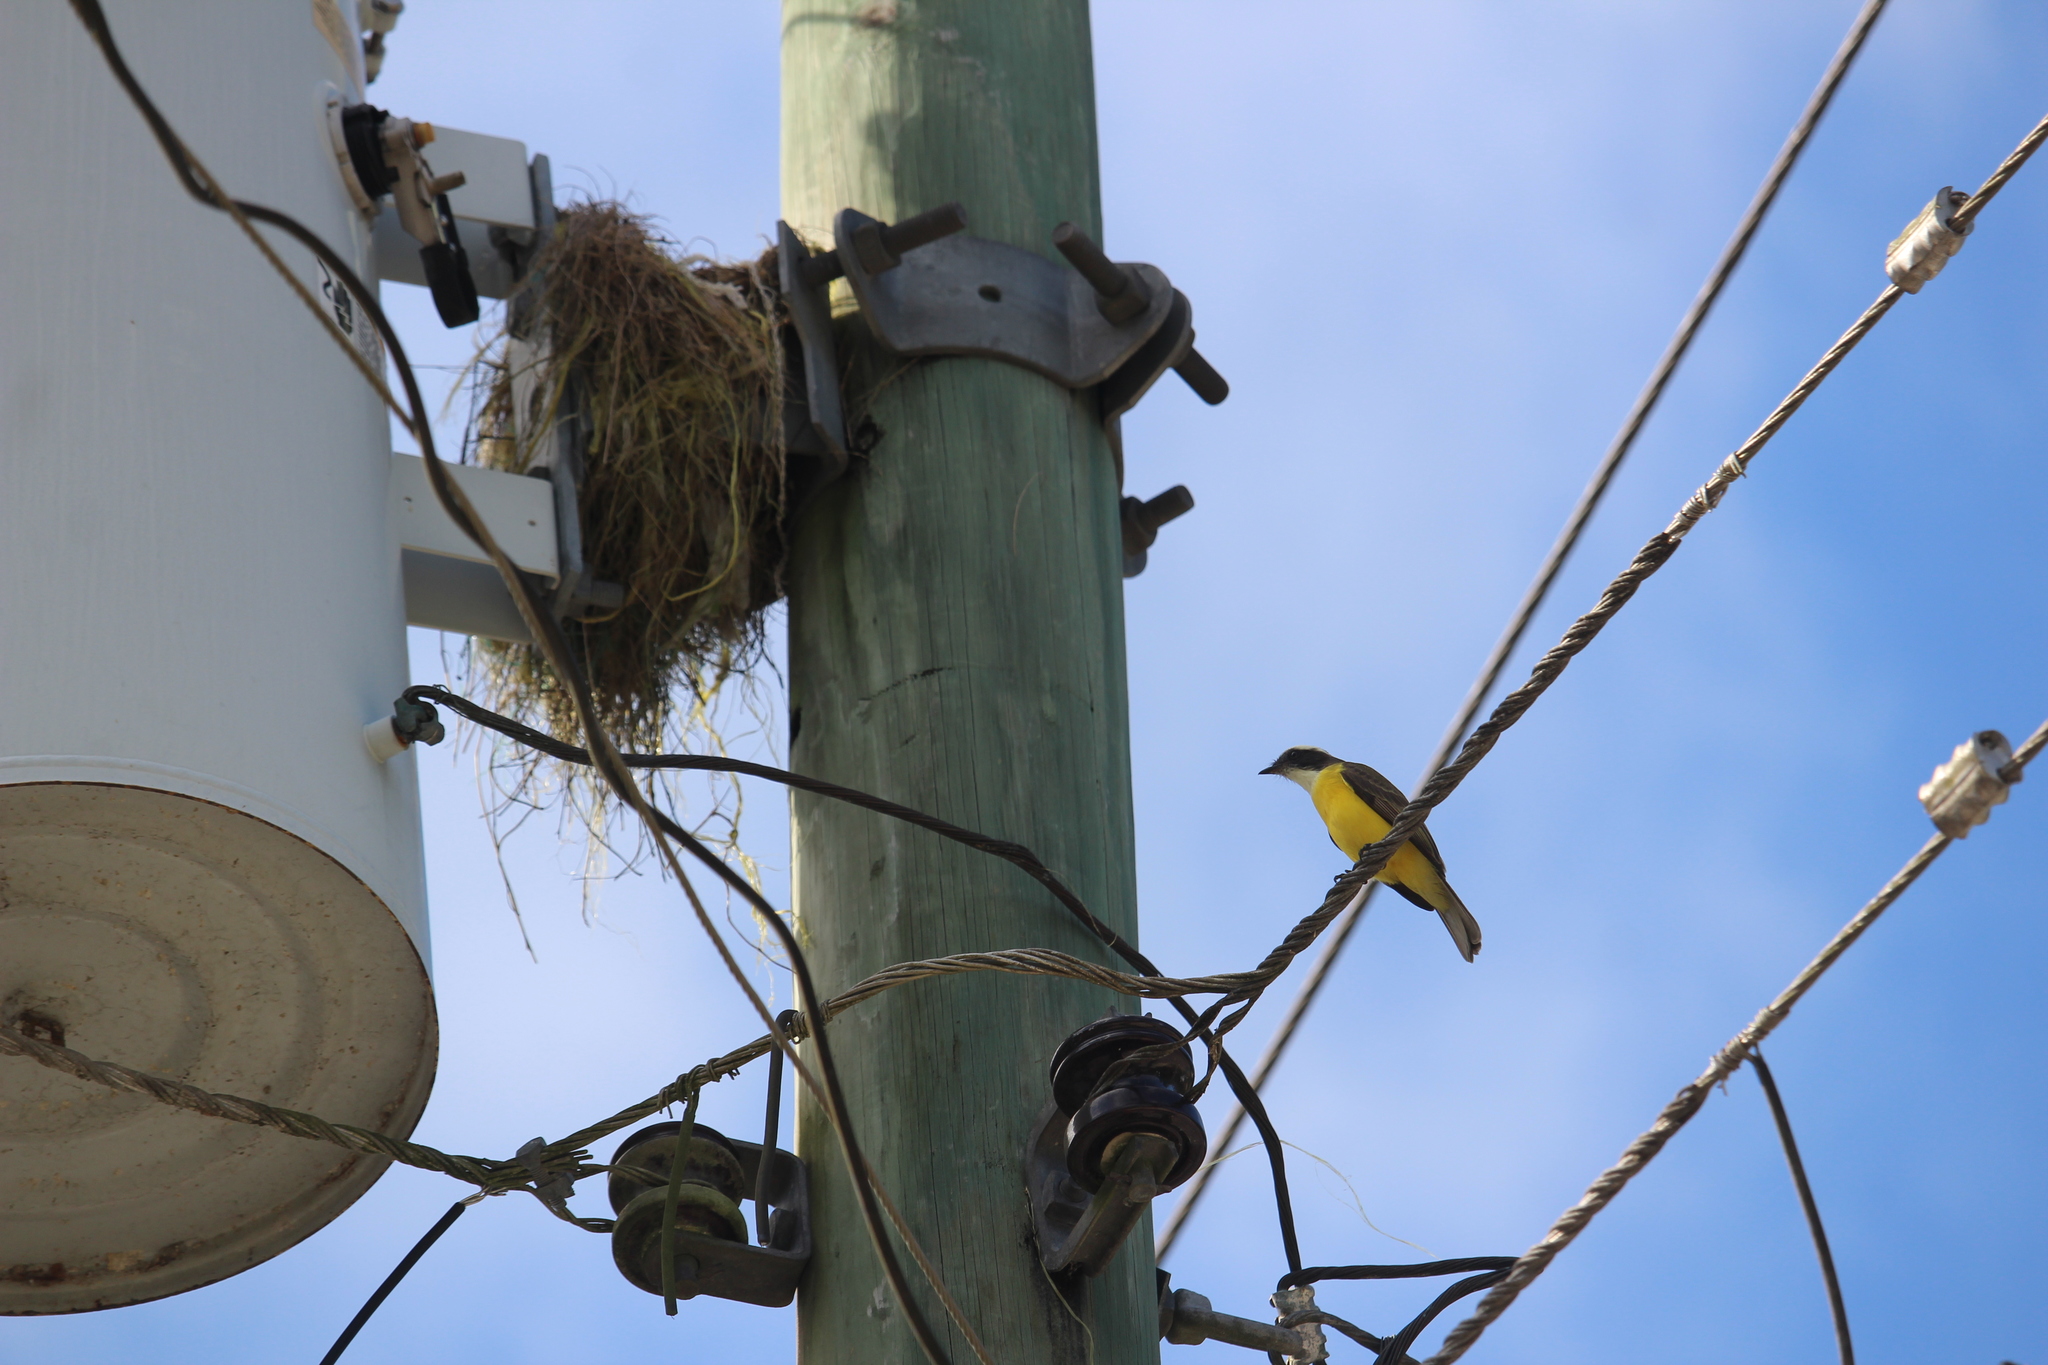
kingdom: Animalia
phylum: Chordata
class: Aves
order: Passeriformes
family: Tyrannidae
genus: Myiozetetes
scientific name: Myiozetetes similis
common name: Social flycatcher
